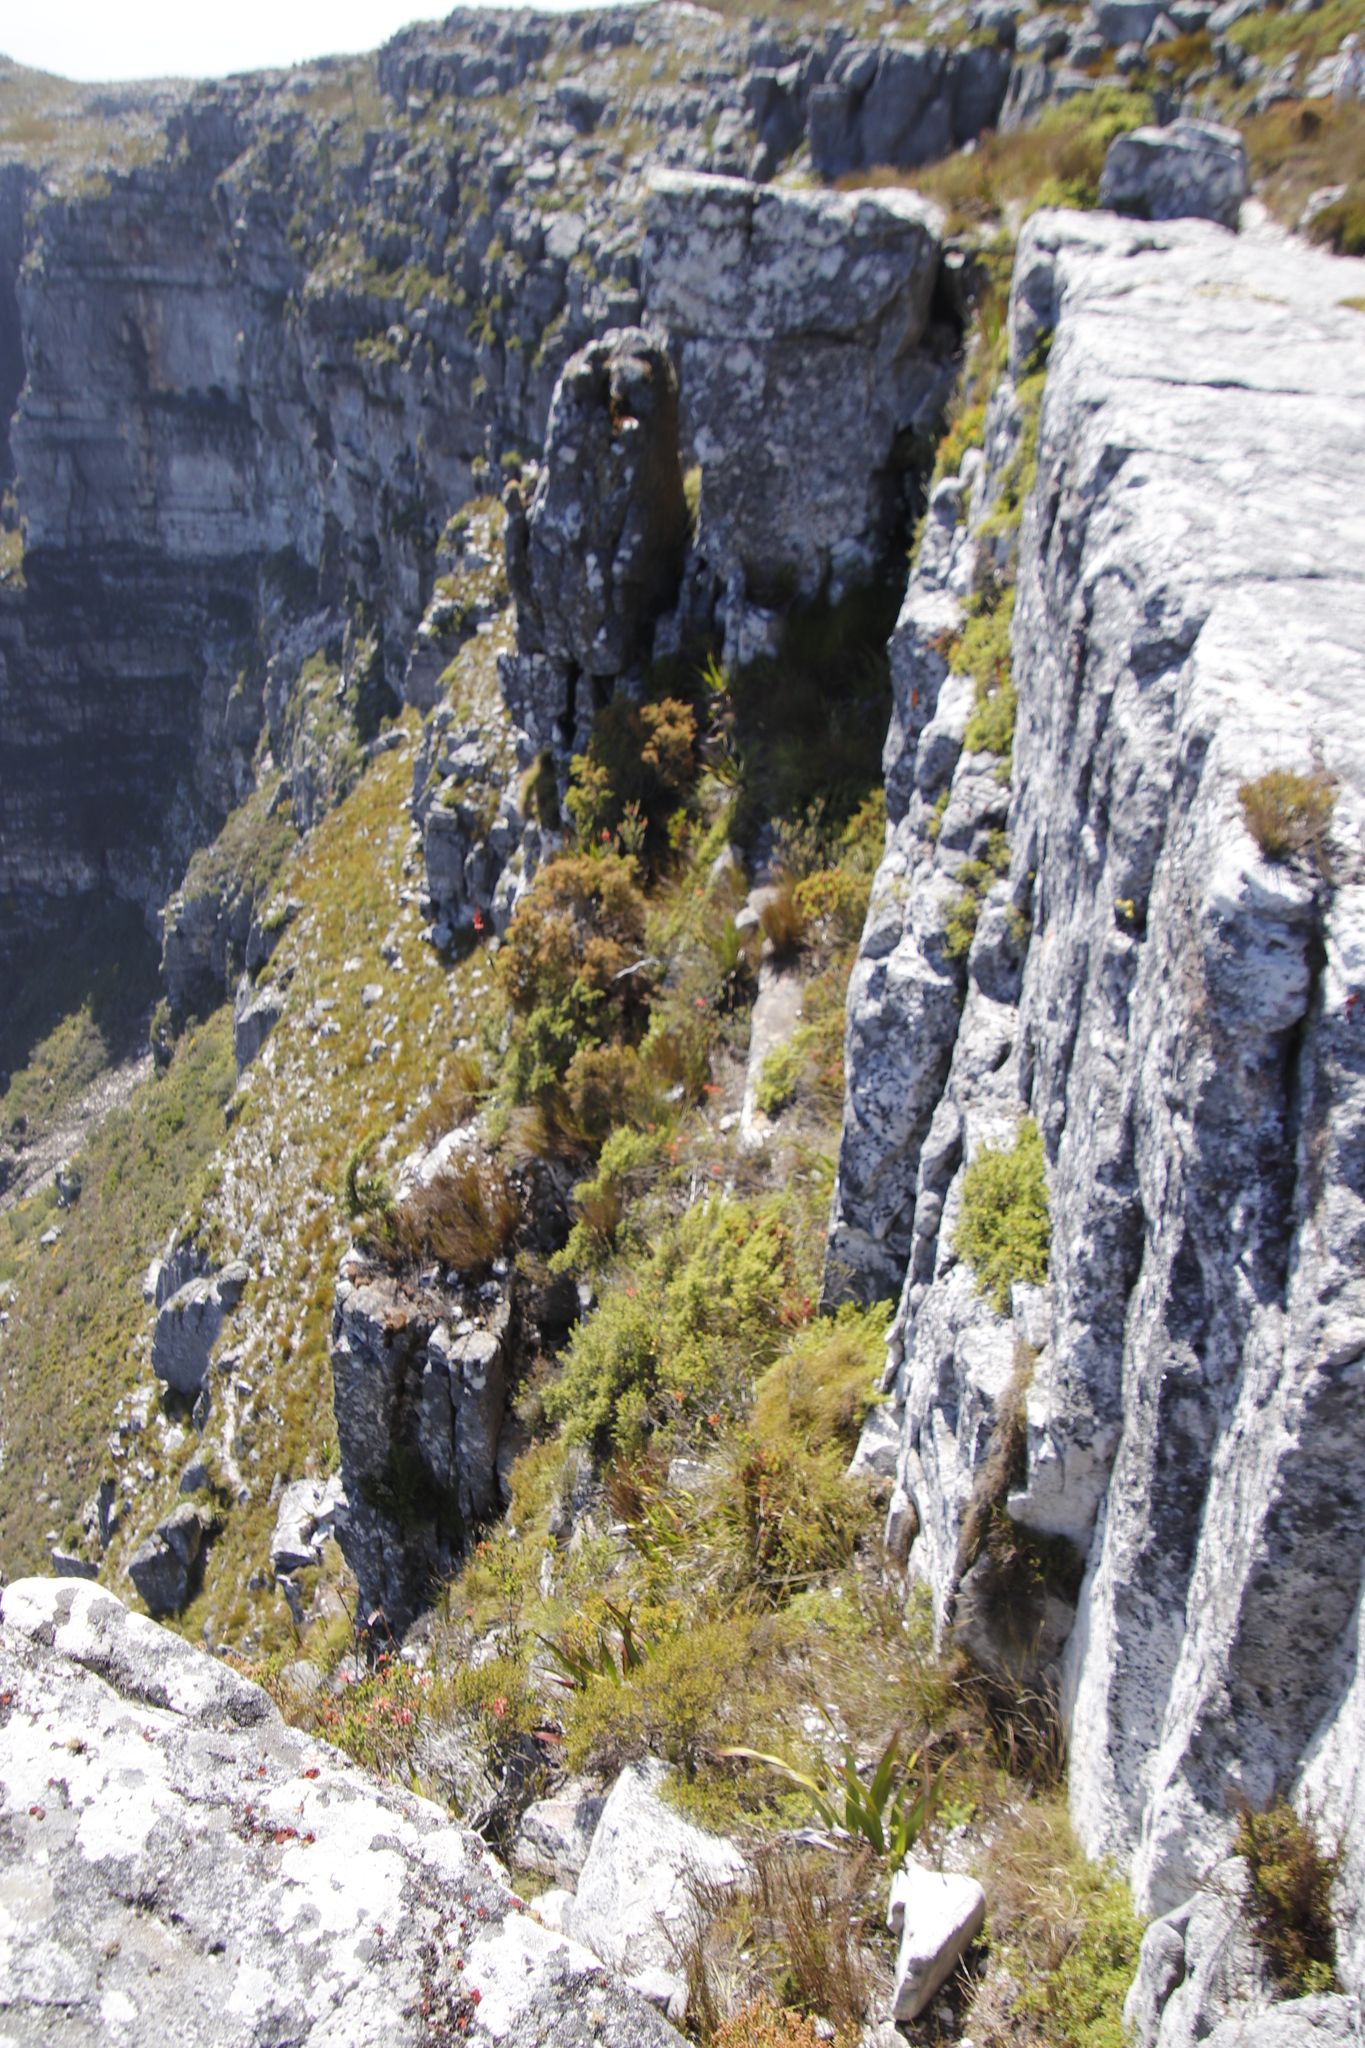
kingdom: Plantae
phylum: Tracheophyta
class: Magnoliopsida
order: Ericales
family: Ericaceae
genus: Erica
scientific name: Erica abietina
